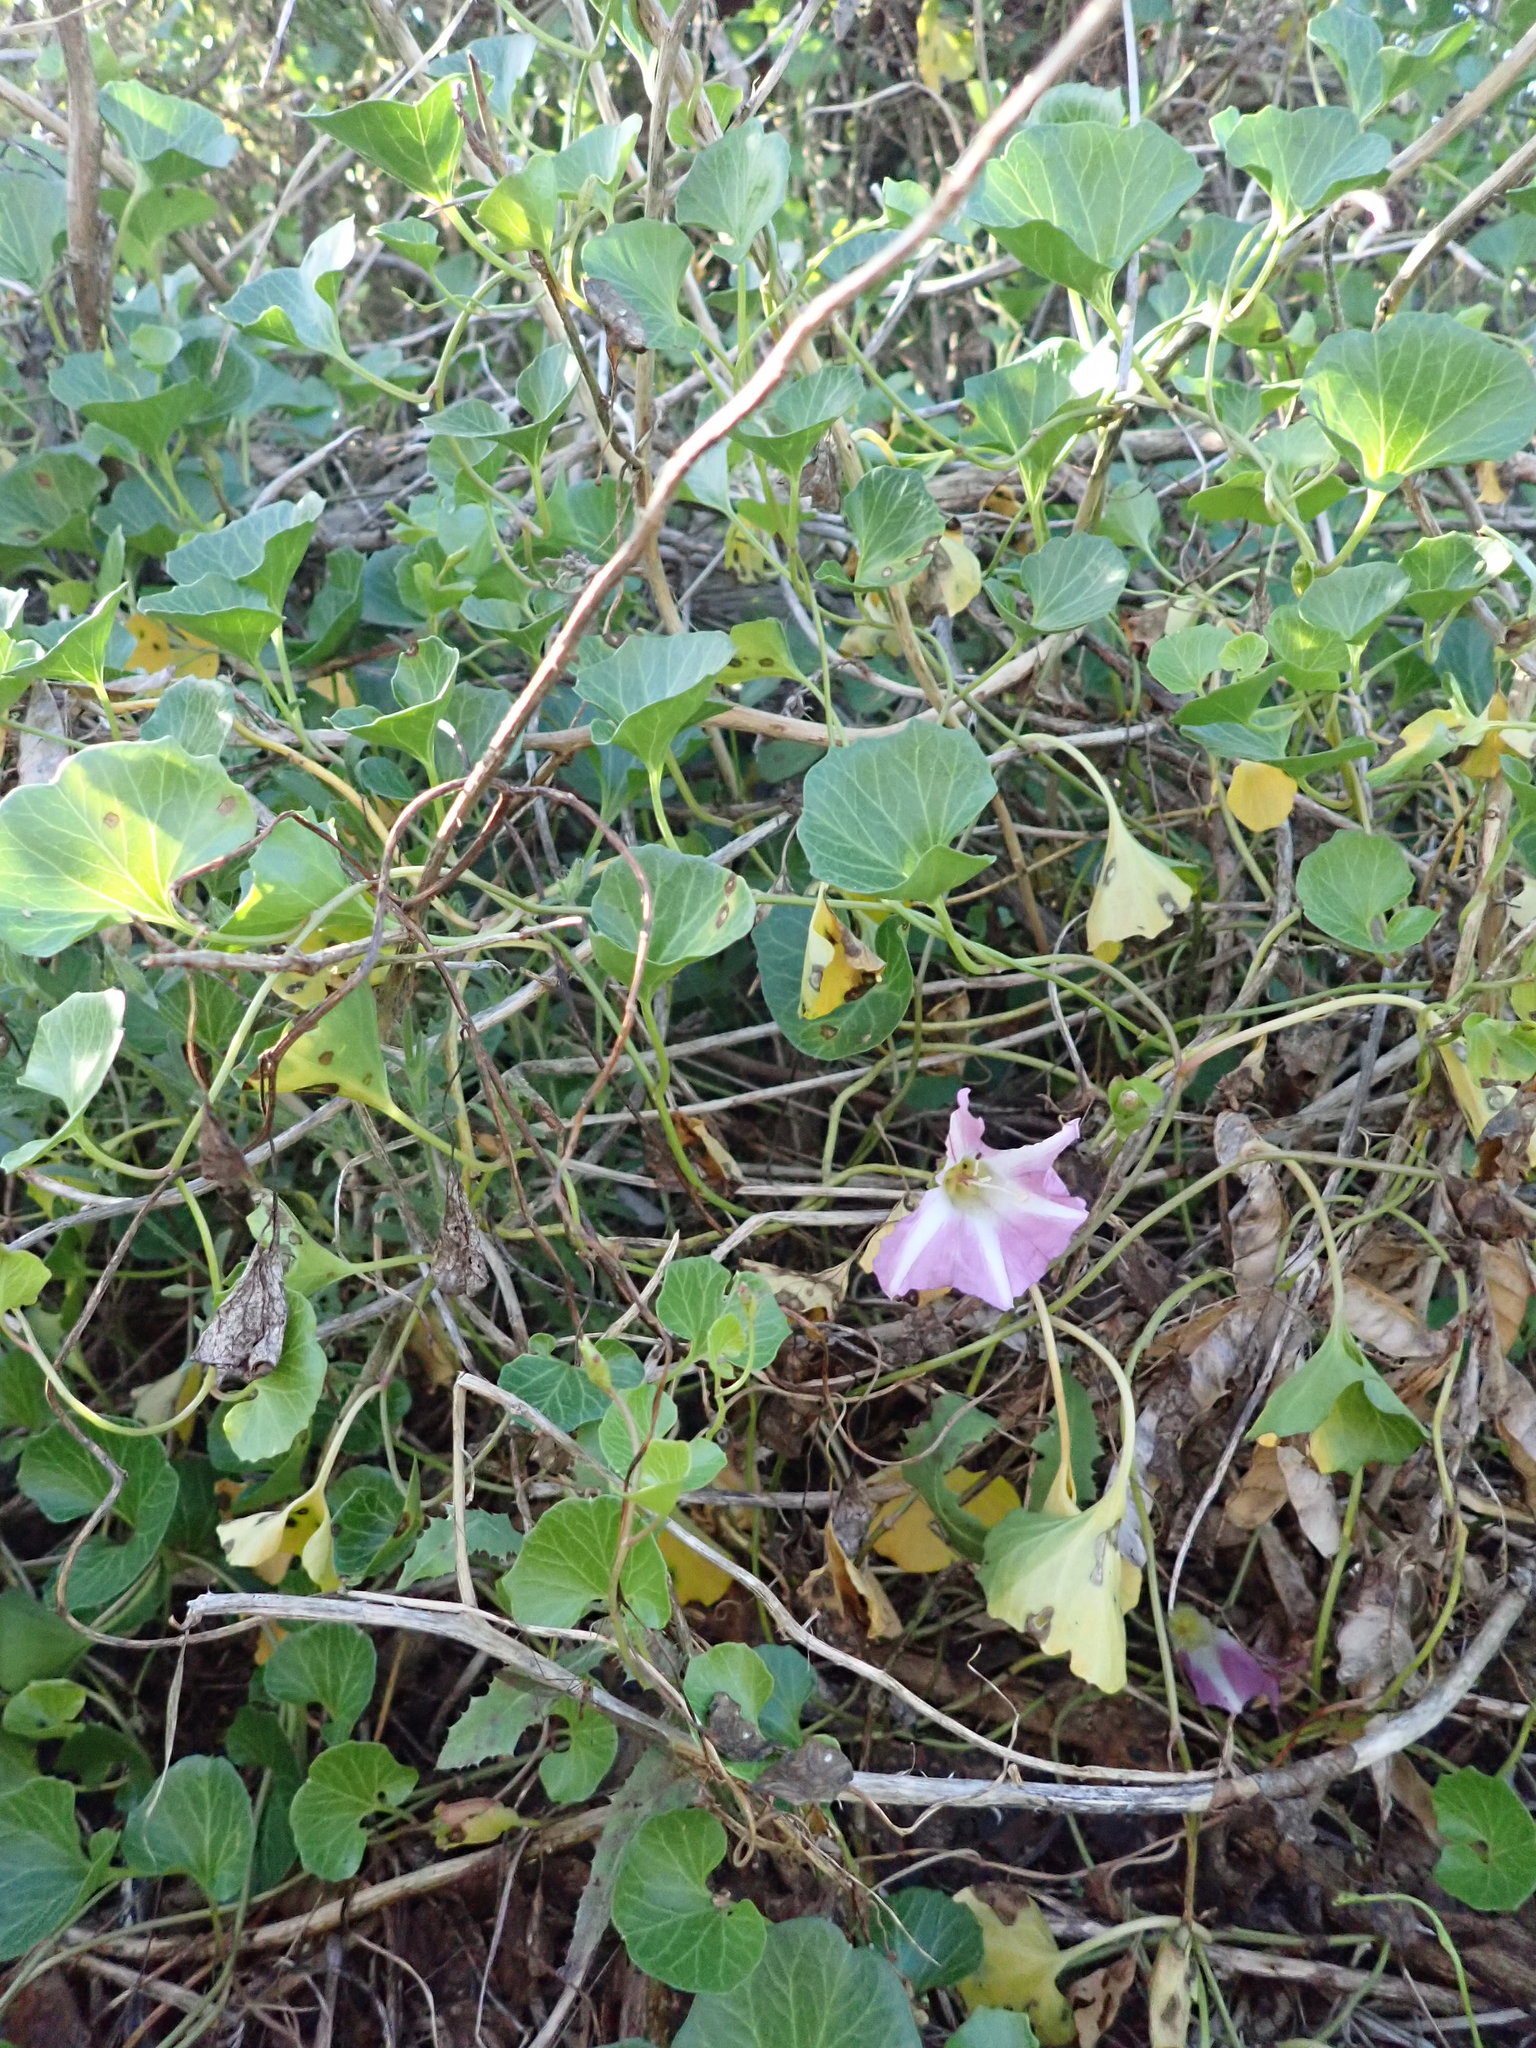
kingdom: Plantae
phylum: Tracheophyta
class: Magnoliopsida
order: Solanales
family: Convolvulaceae
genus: Calystegia
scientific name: Calystegia soldanella
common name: Sea bindweed
